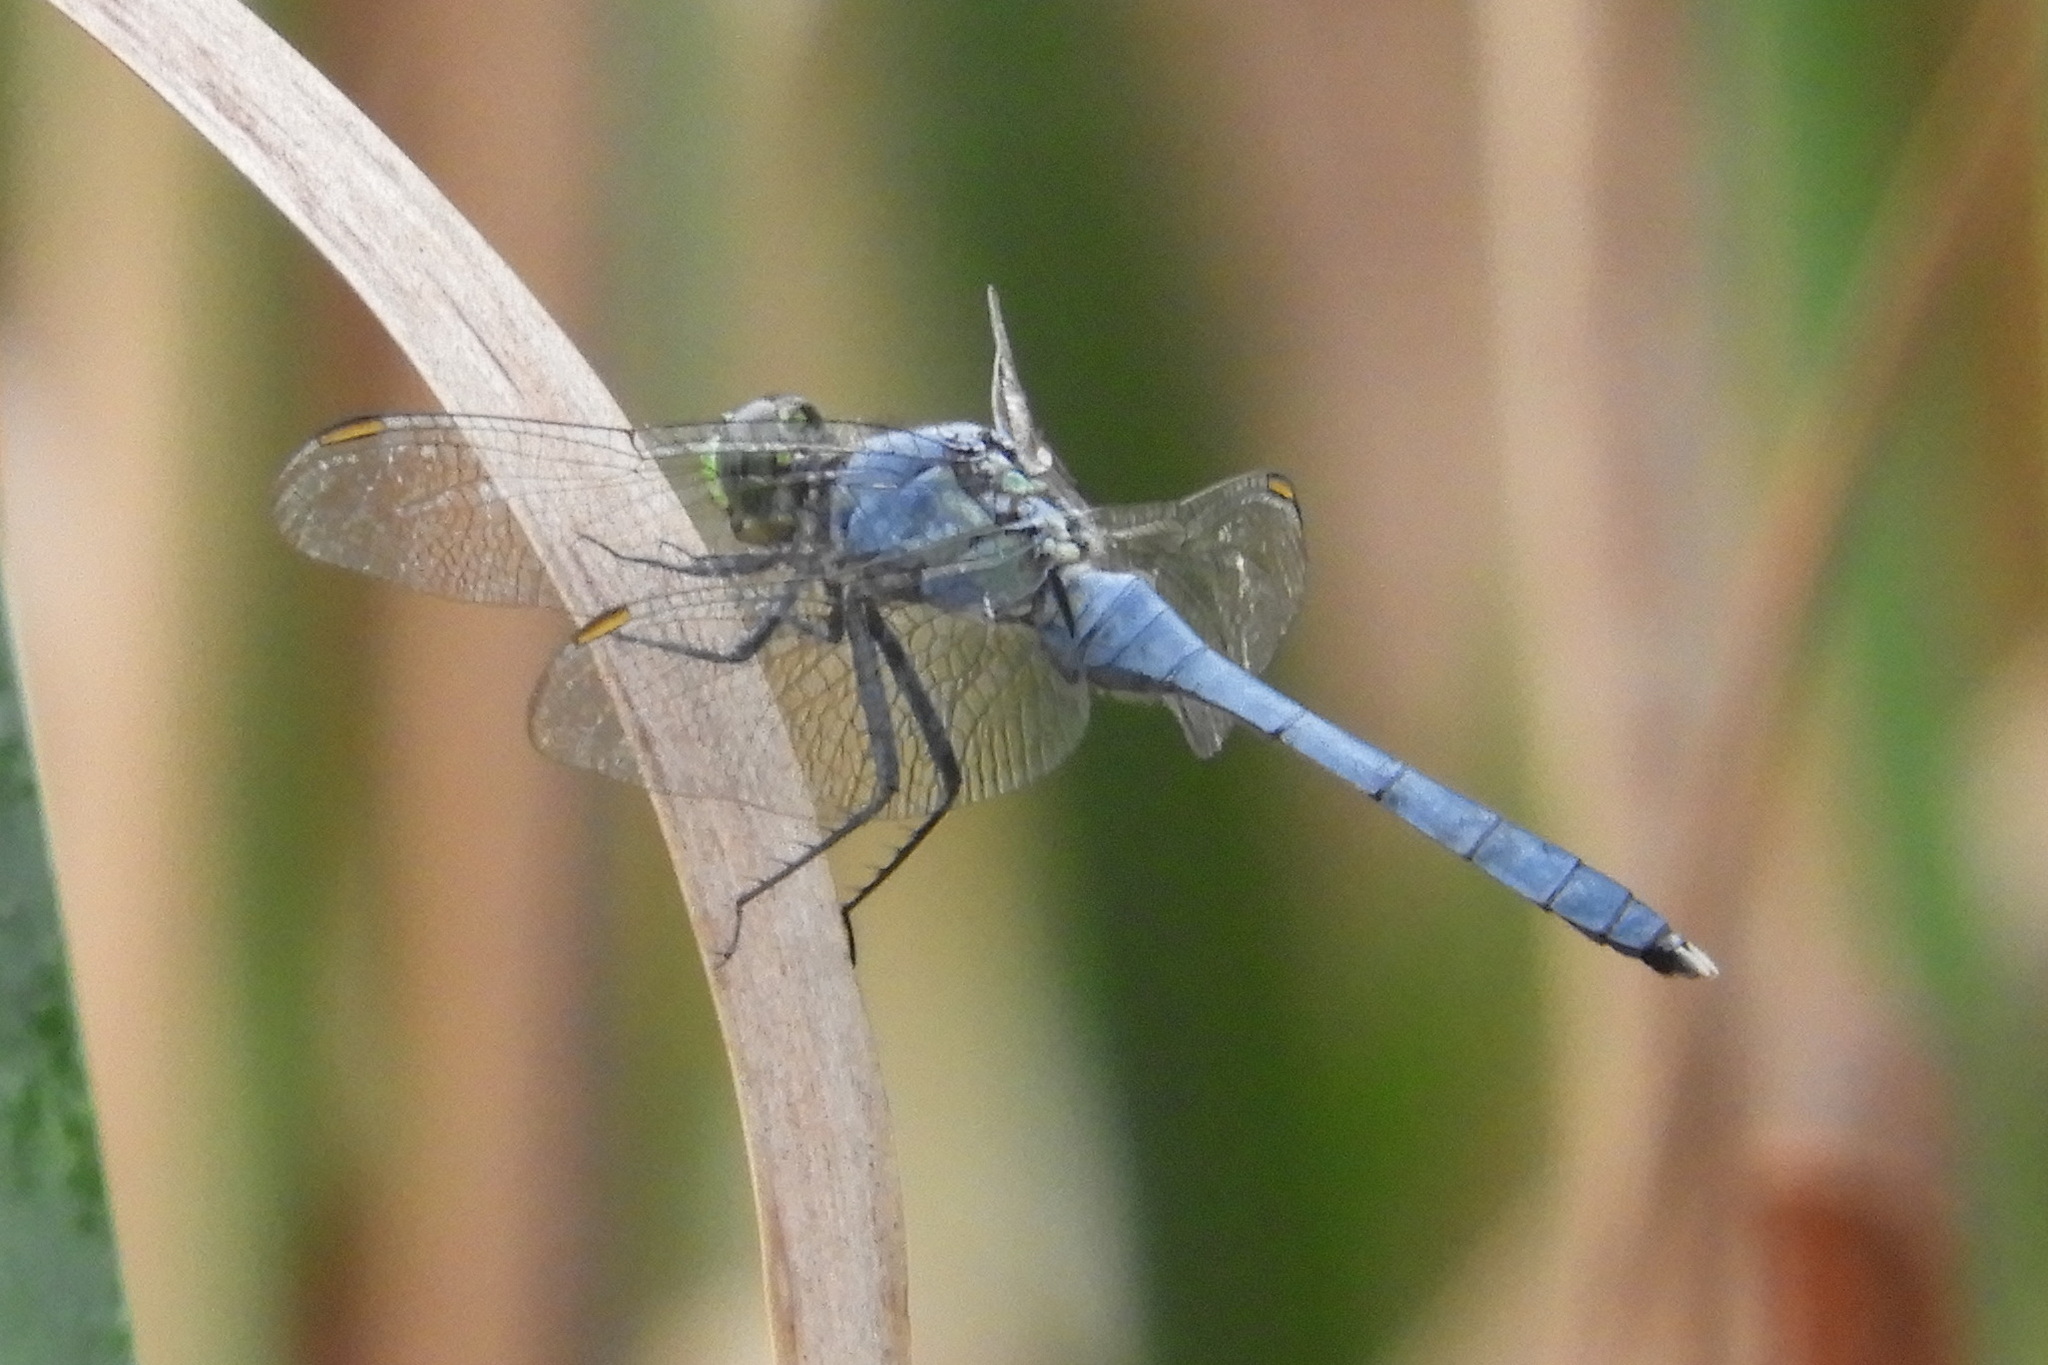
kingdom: Animalia
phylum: Arthropoda
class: Insecta
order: Odonata
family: Libellulidae
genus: Erythemis
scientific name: Erythemis simplicicollis
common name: Eastern pondhawk
